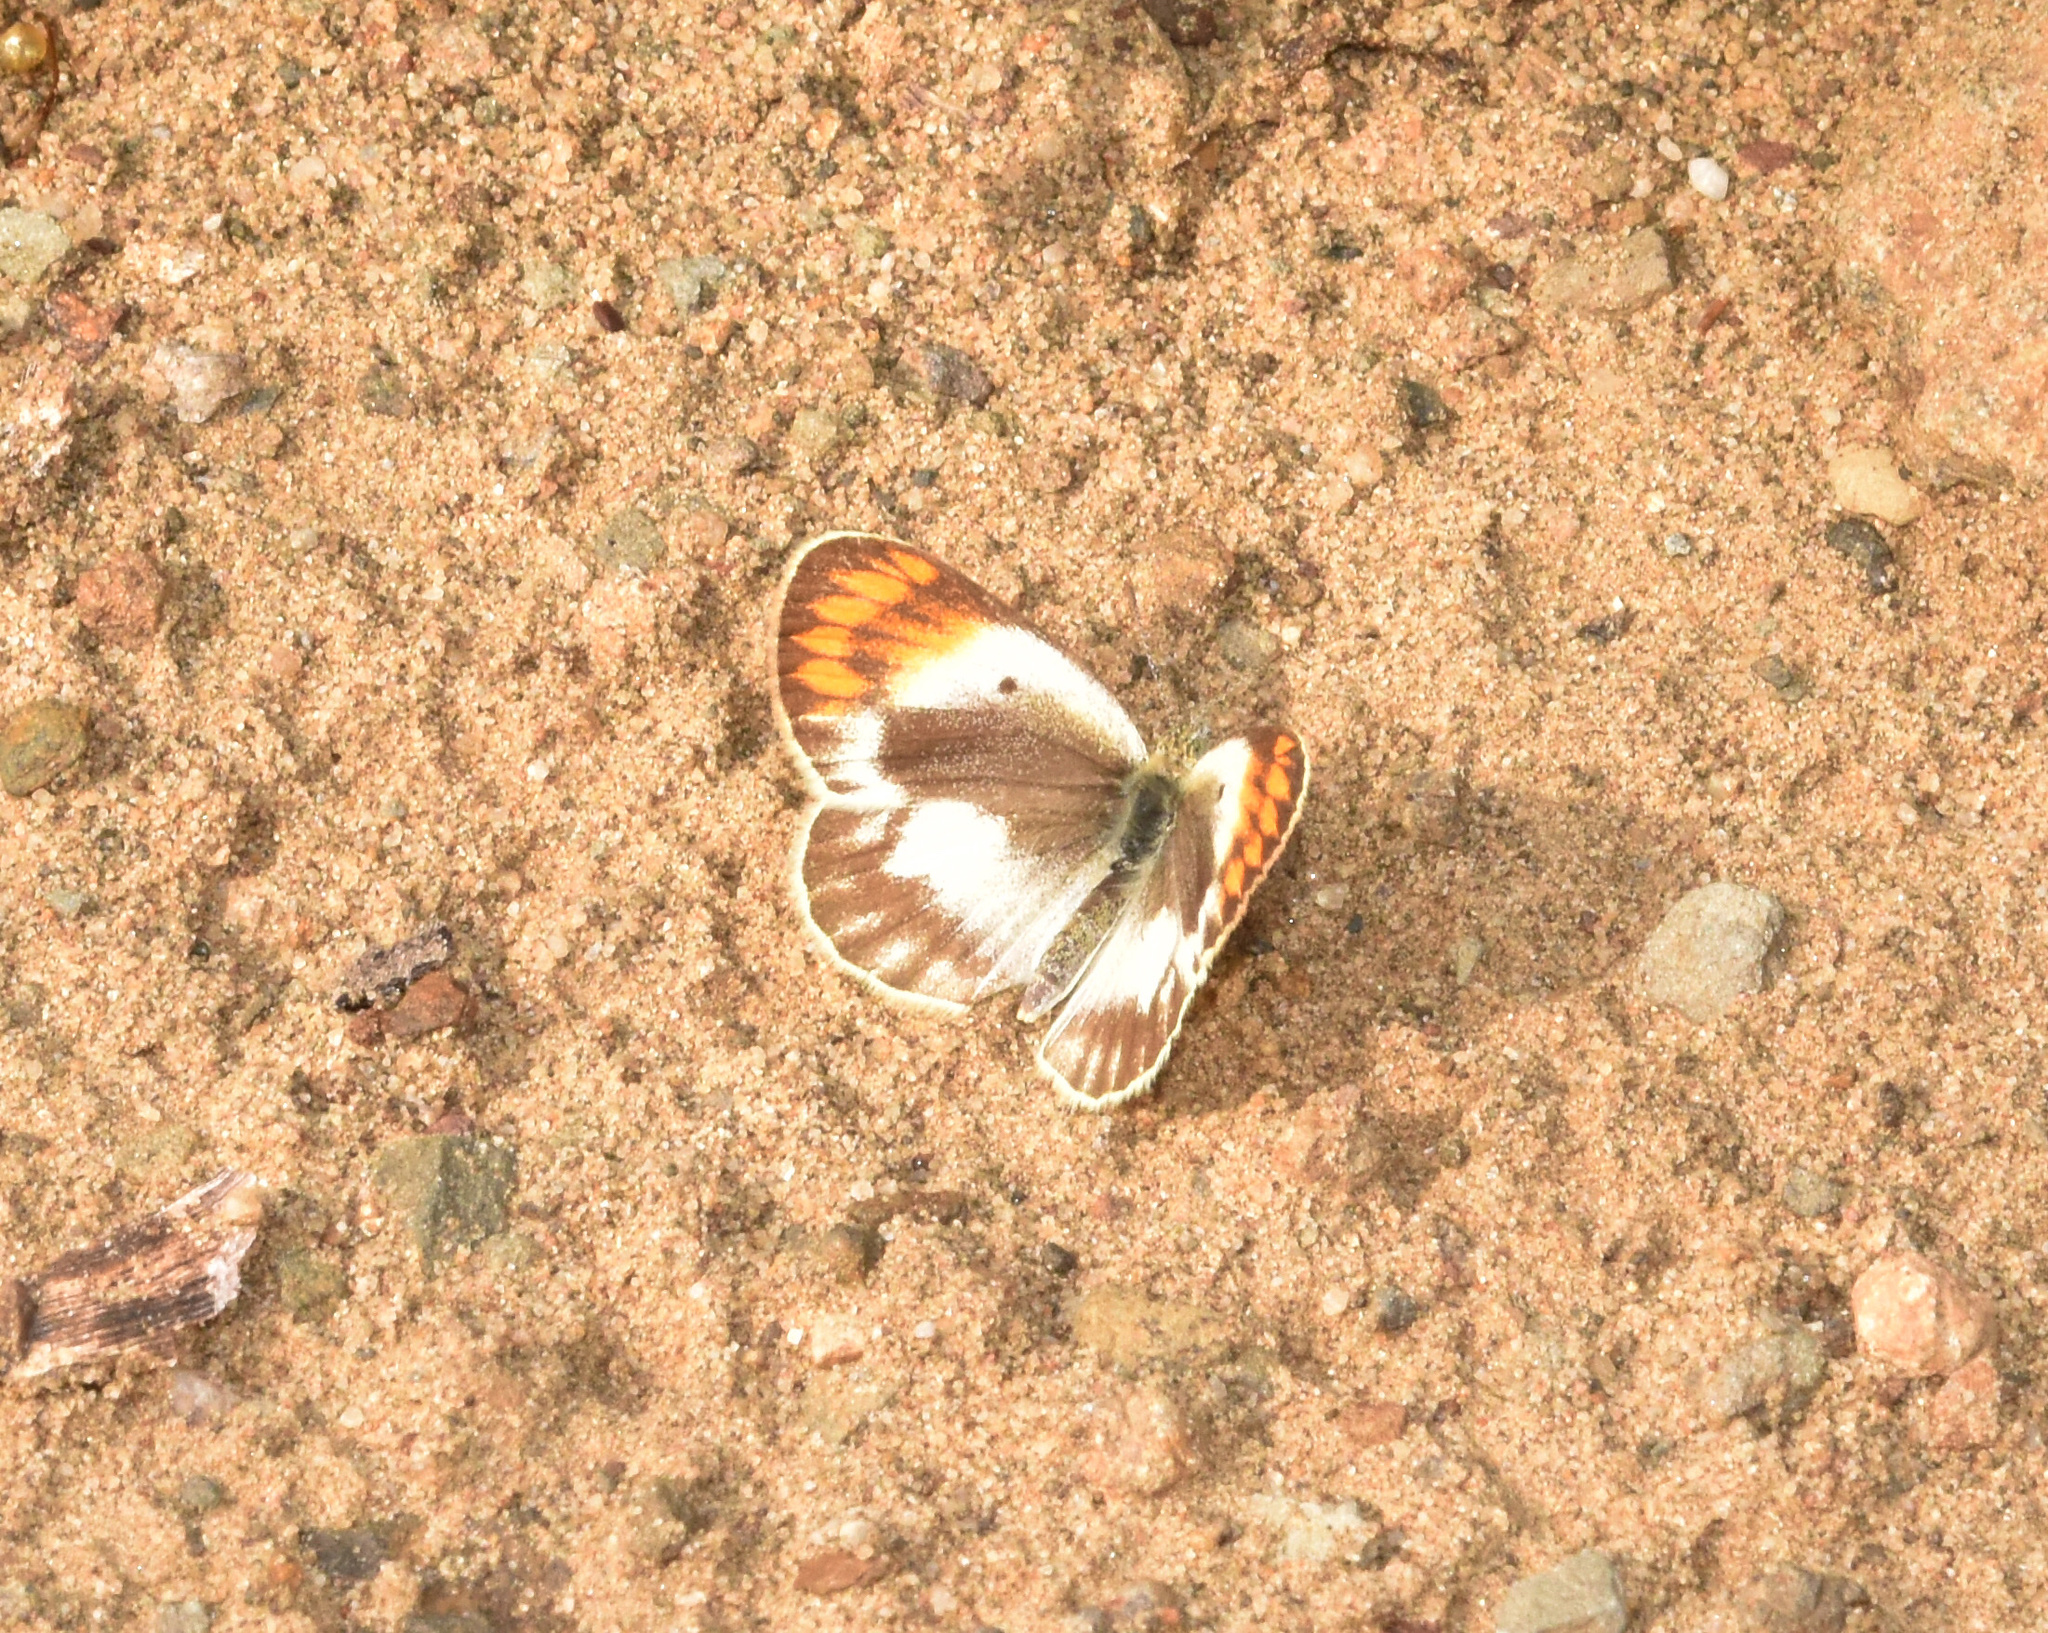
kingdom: Animalia
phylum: Arthropoda
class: Insecta
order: Lepidoptera
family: Pieridae
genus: Colotis
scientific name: Colotis evagore
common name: Desert orange-tip
